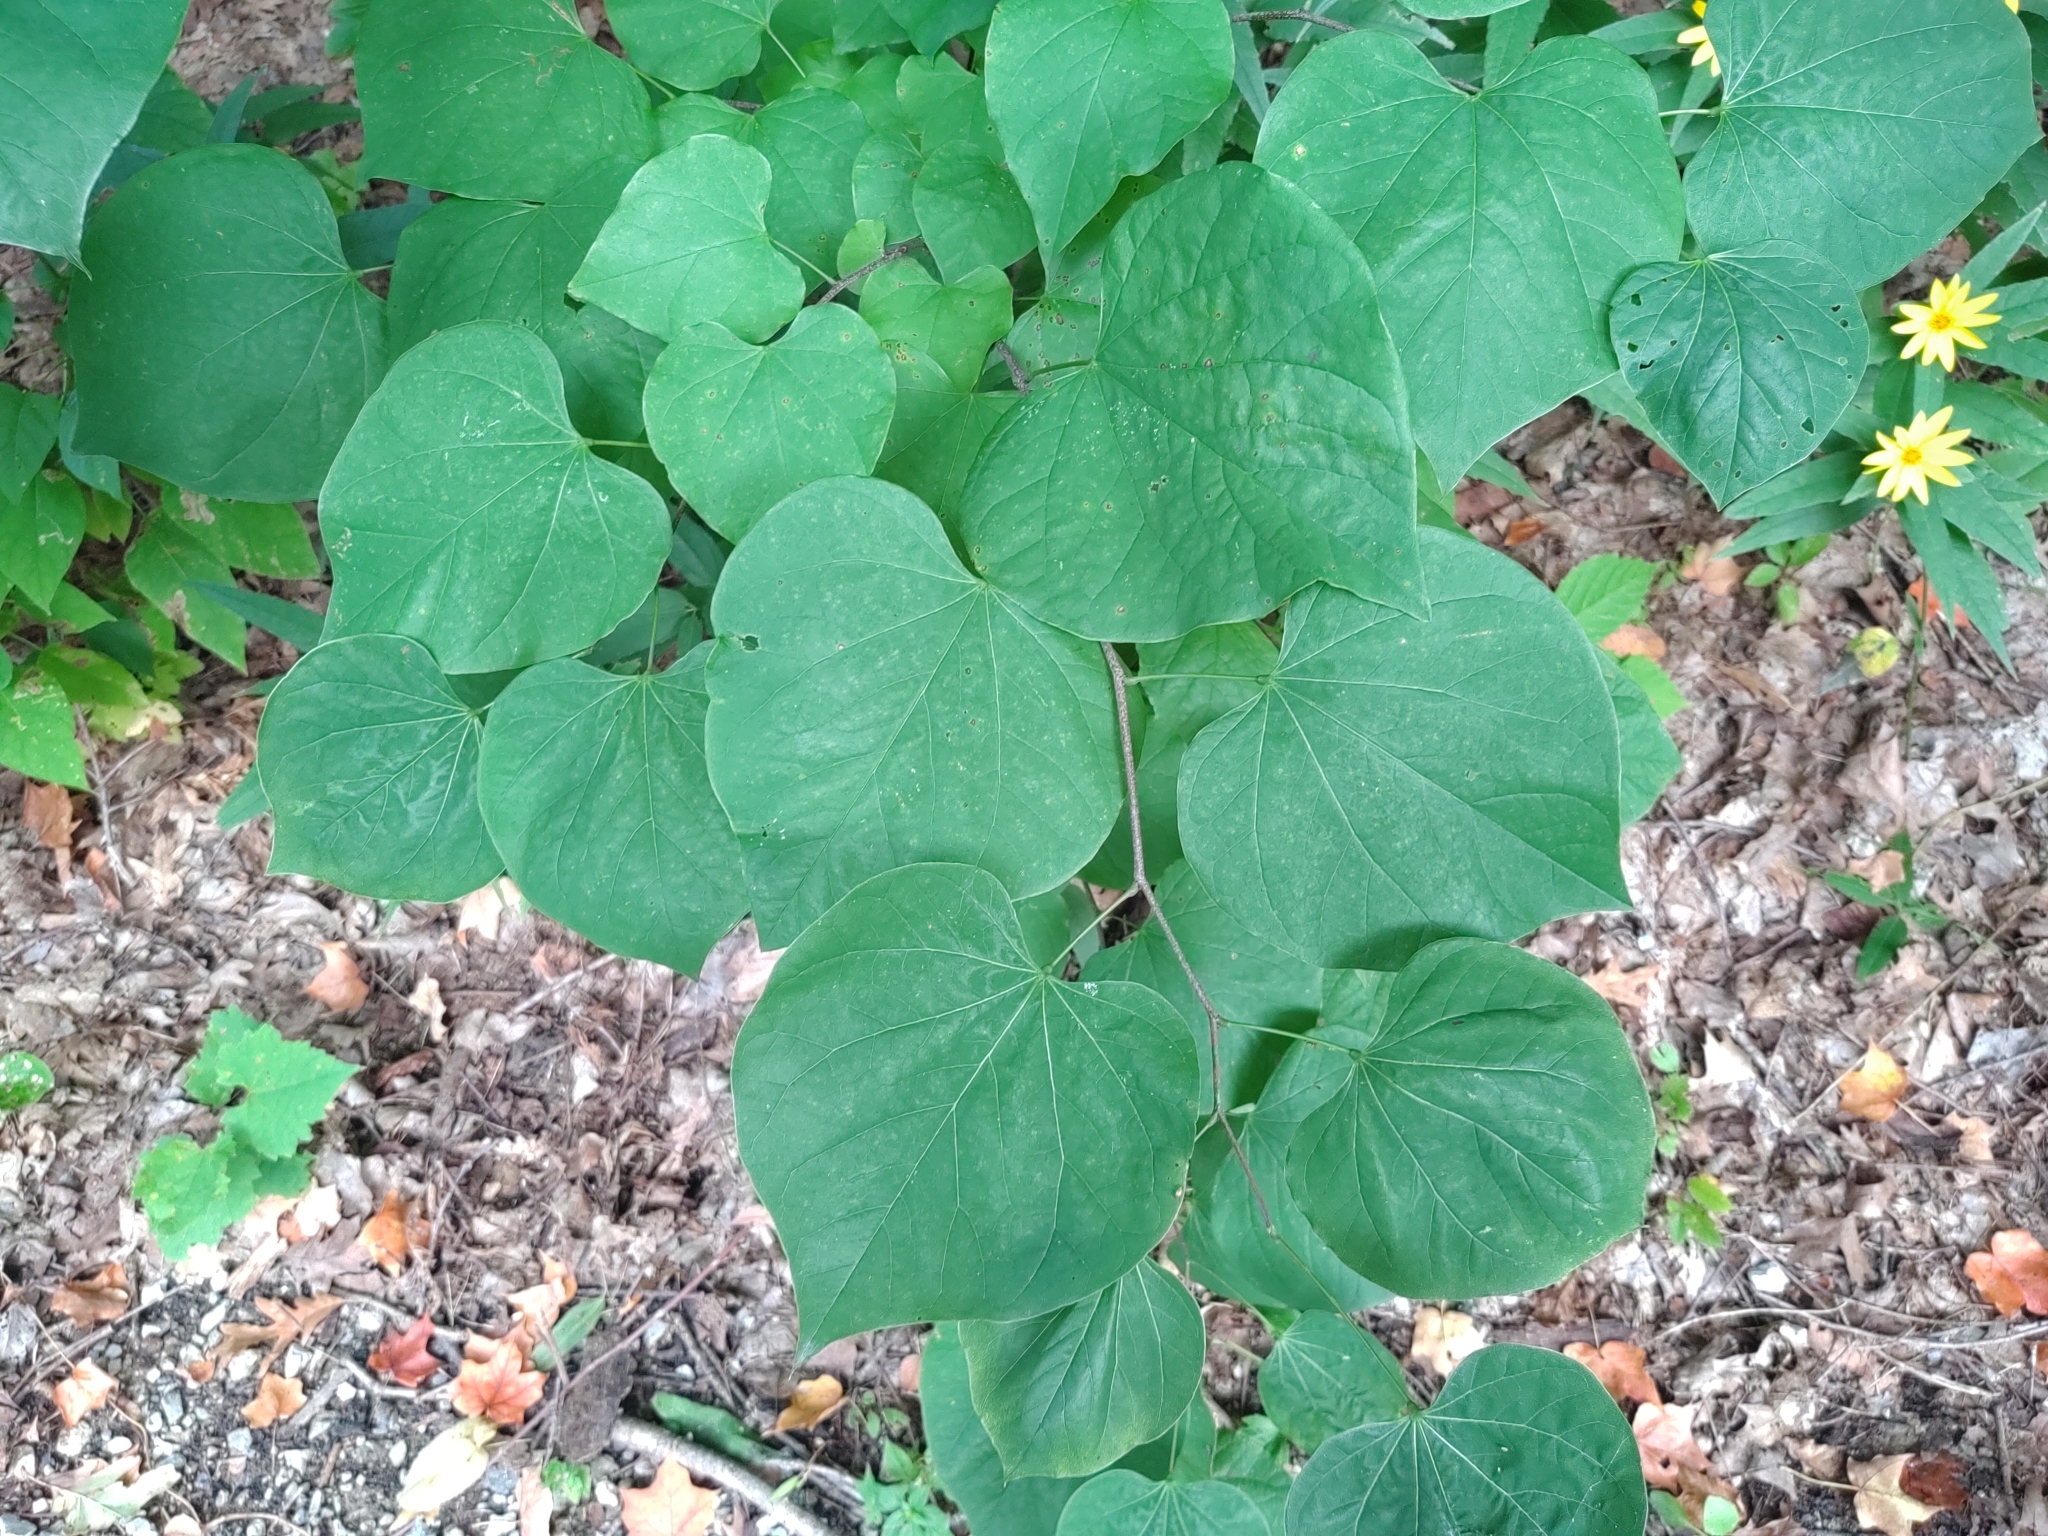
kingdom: Plantae
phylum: Tracheophyta
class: Magnoliopsida
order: Fabales
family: Fabaceae
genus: Cercis
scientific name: Cercis canadensis
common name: Eastern redbud
